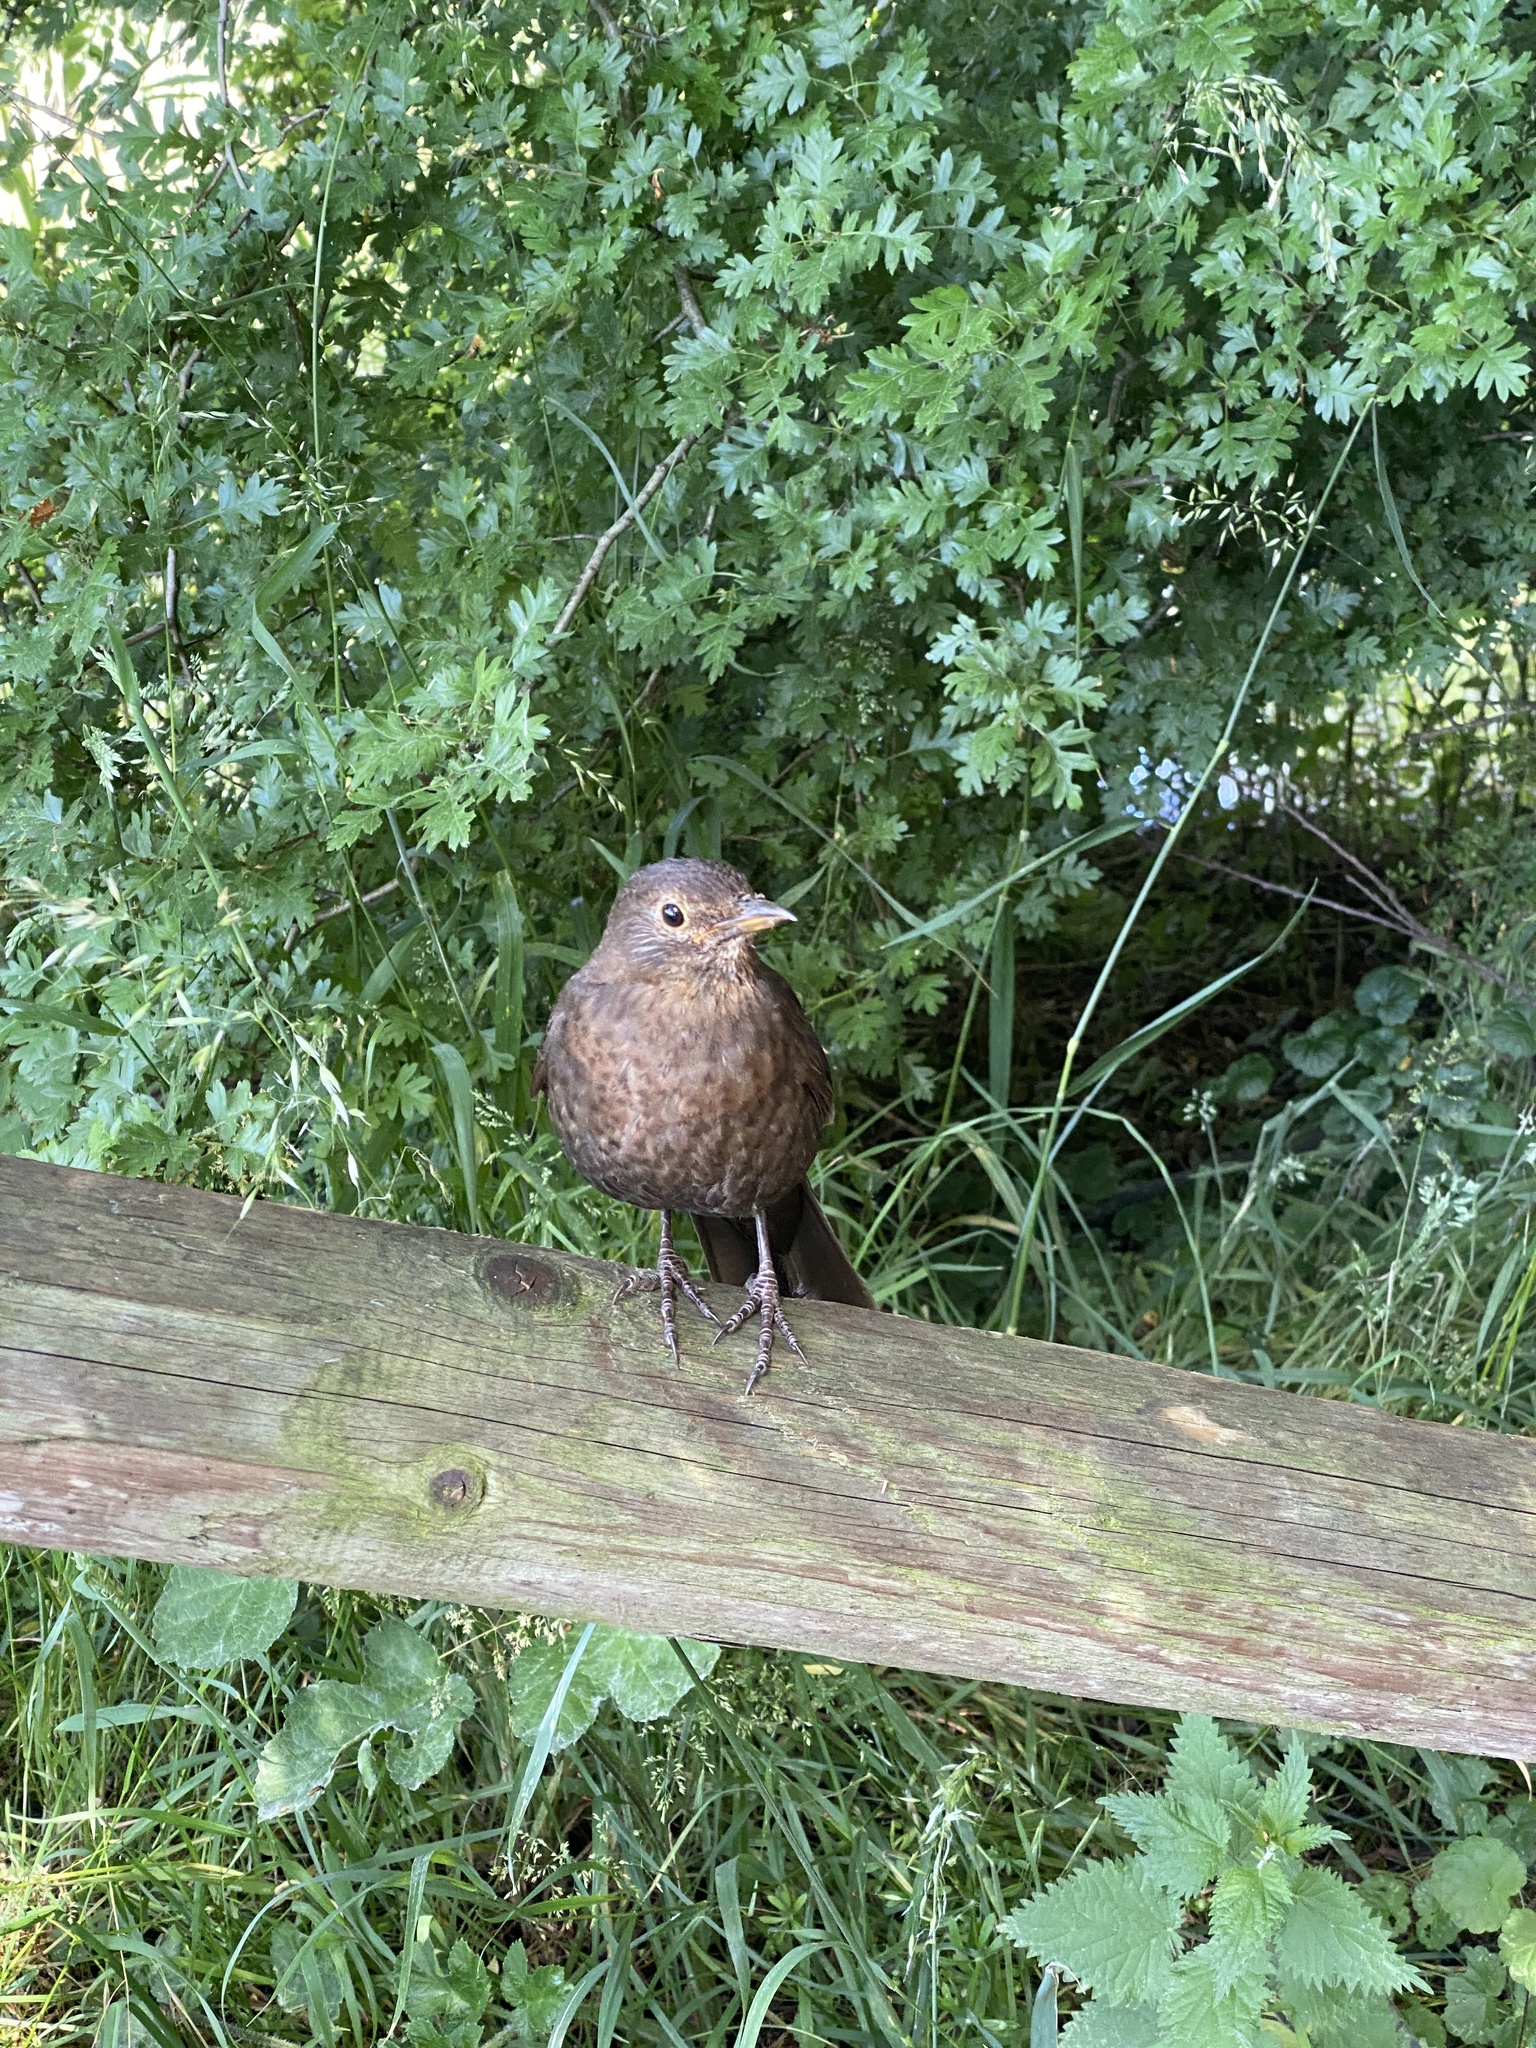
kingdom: Animalia
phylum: Chordata
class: Aves
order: Passeriformes
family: Turdidae
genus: Turdus
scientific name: Turdus merula
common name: Common blackbird
